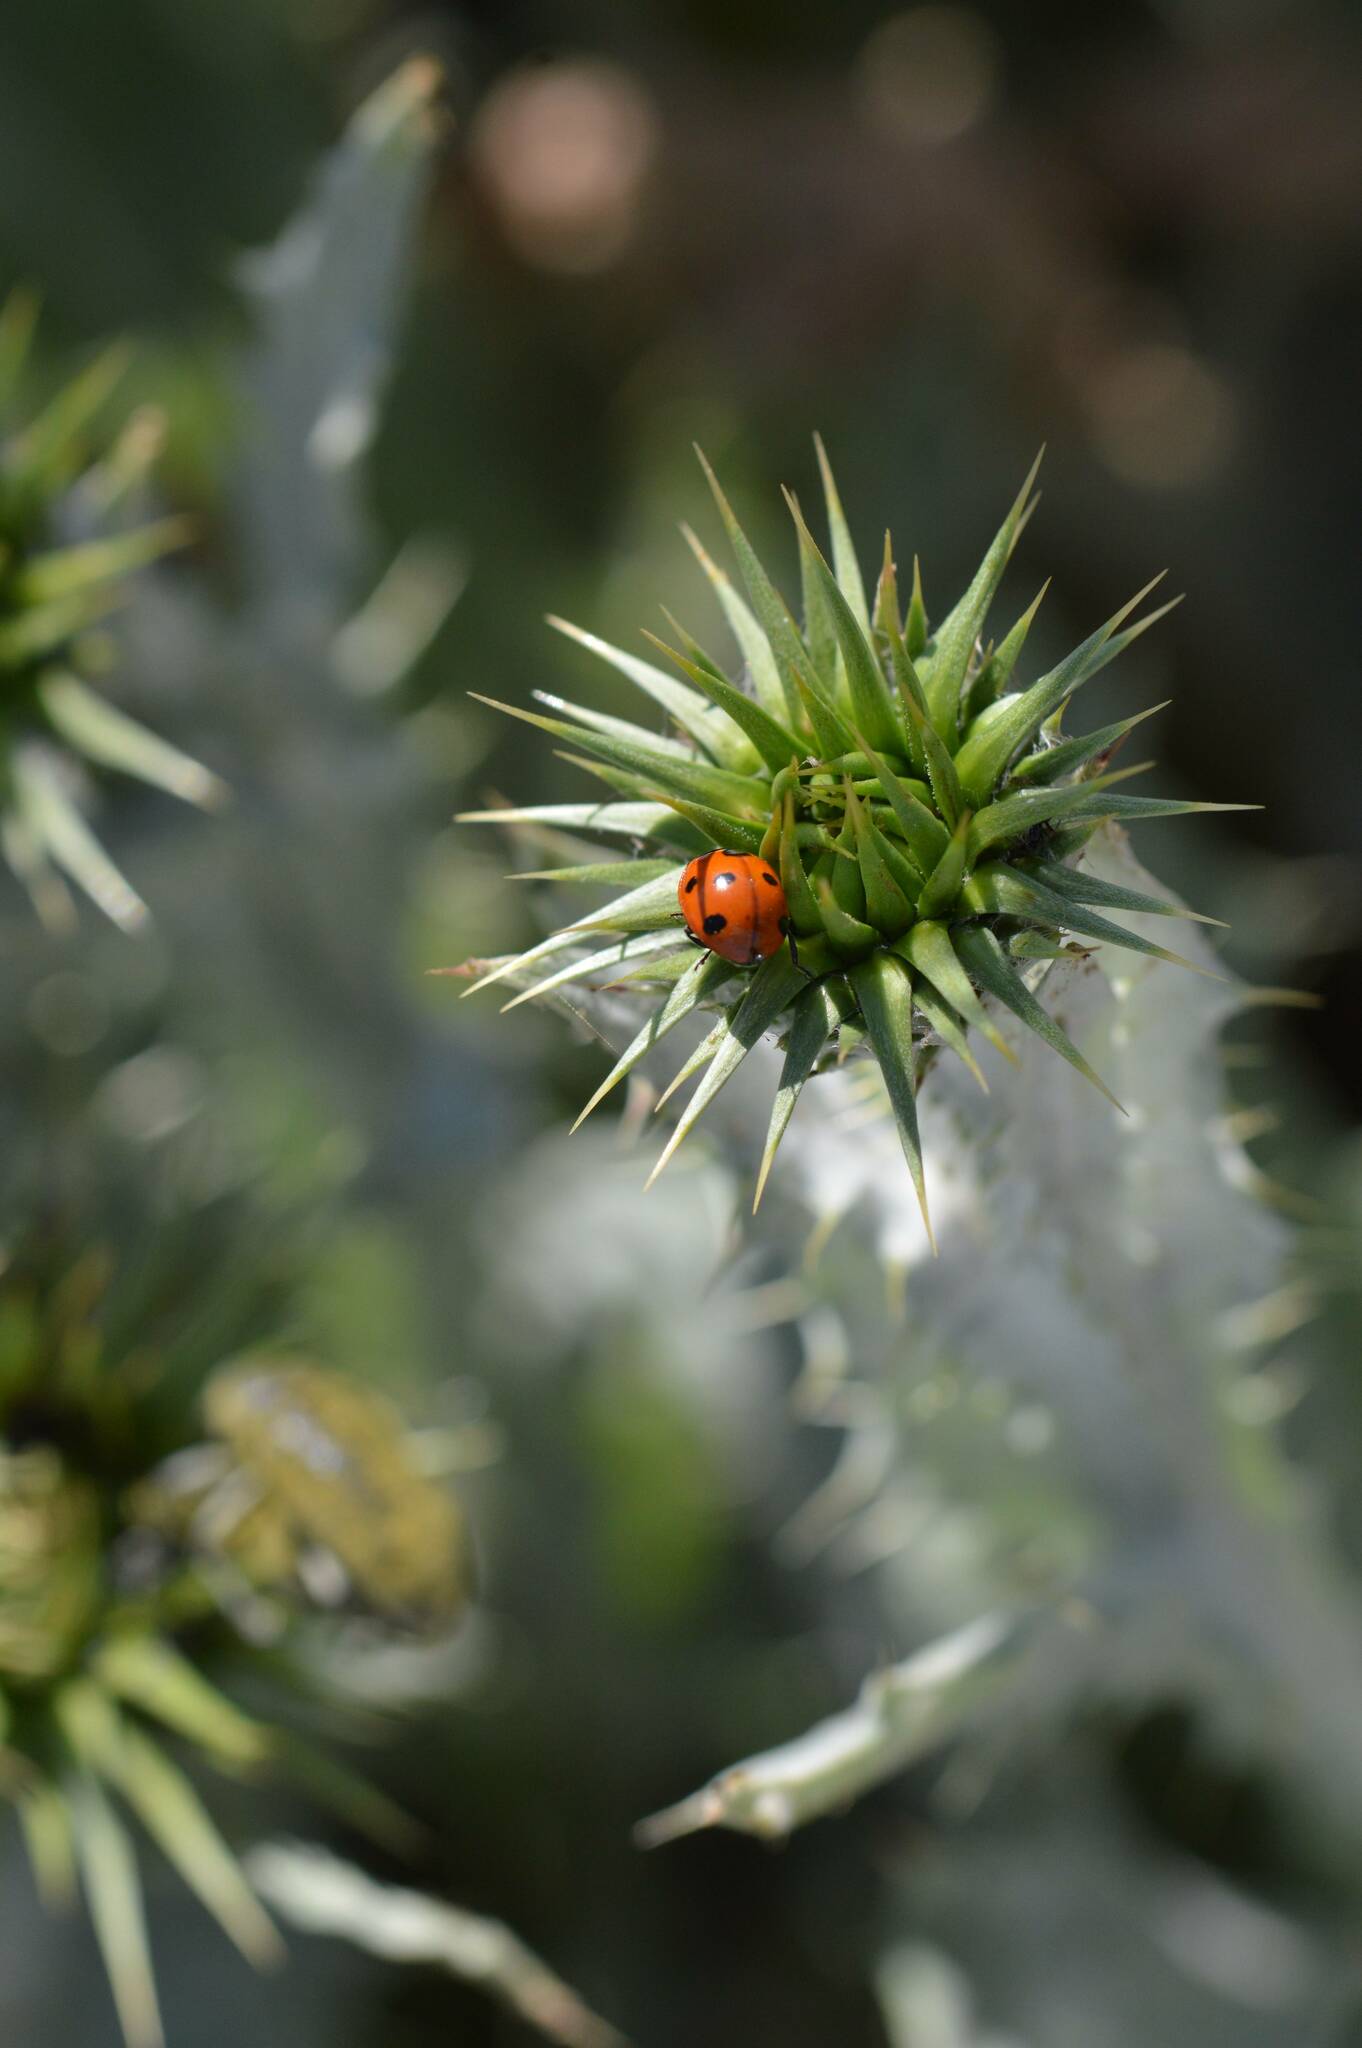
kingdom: Animalia
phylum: Arthropoda
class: Insecta
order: Coleoptera
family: Coccinellidae
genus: Coccinella
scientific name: Coccinella algerica
